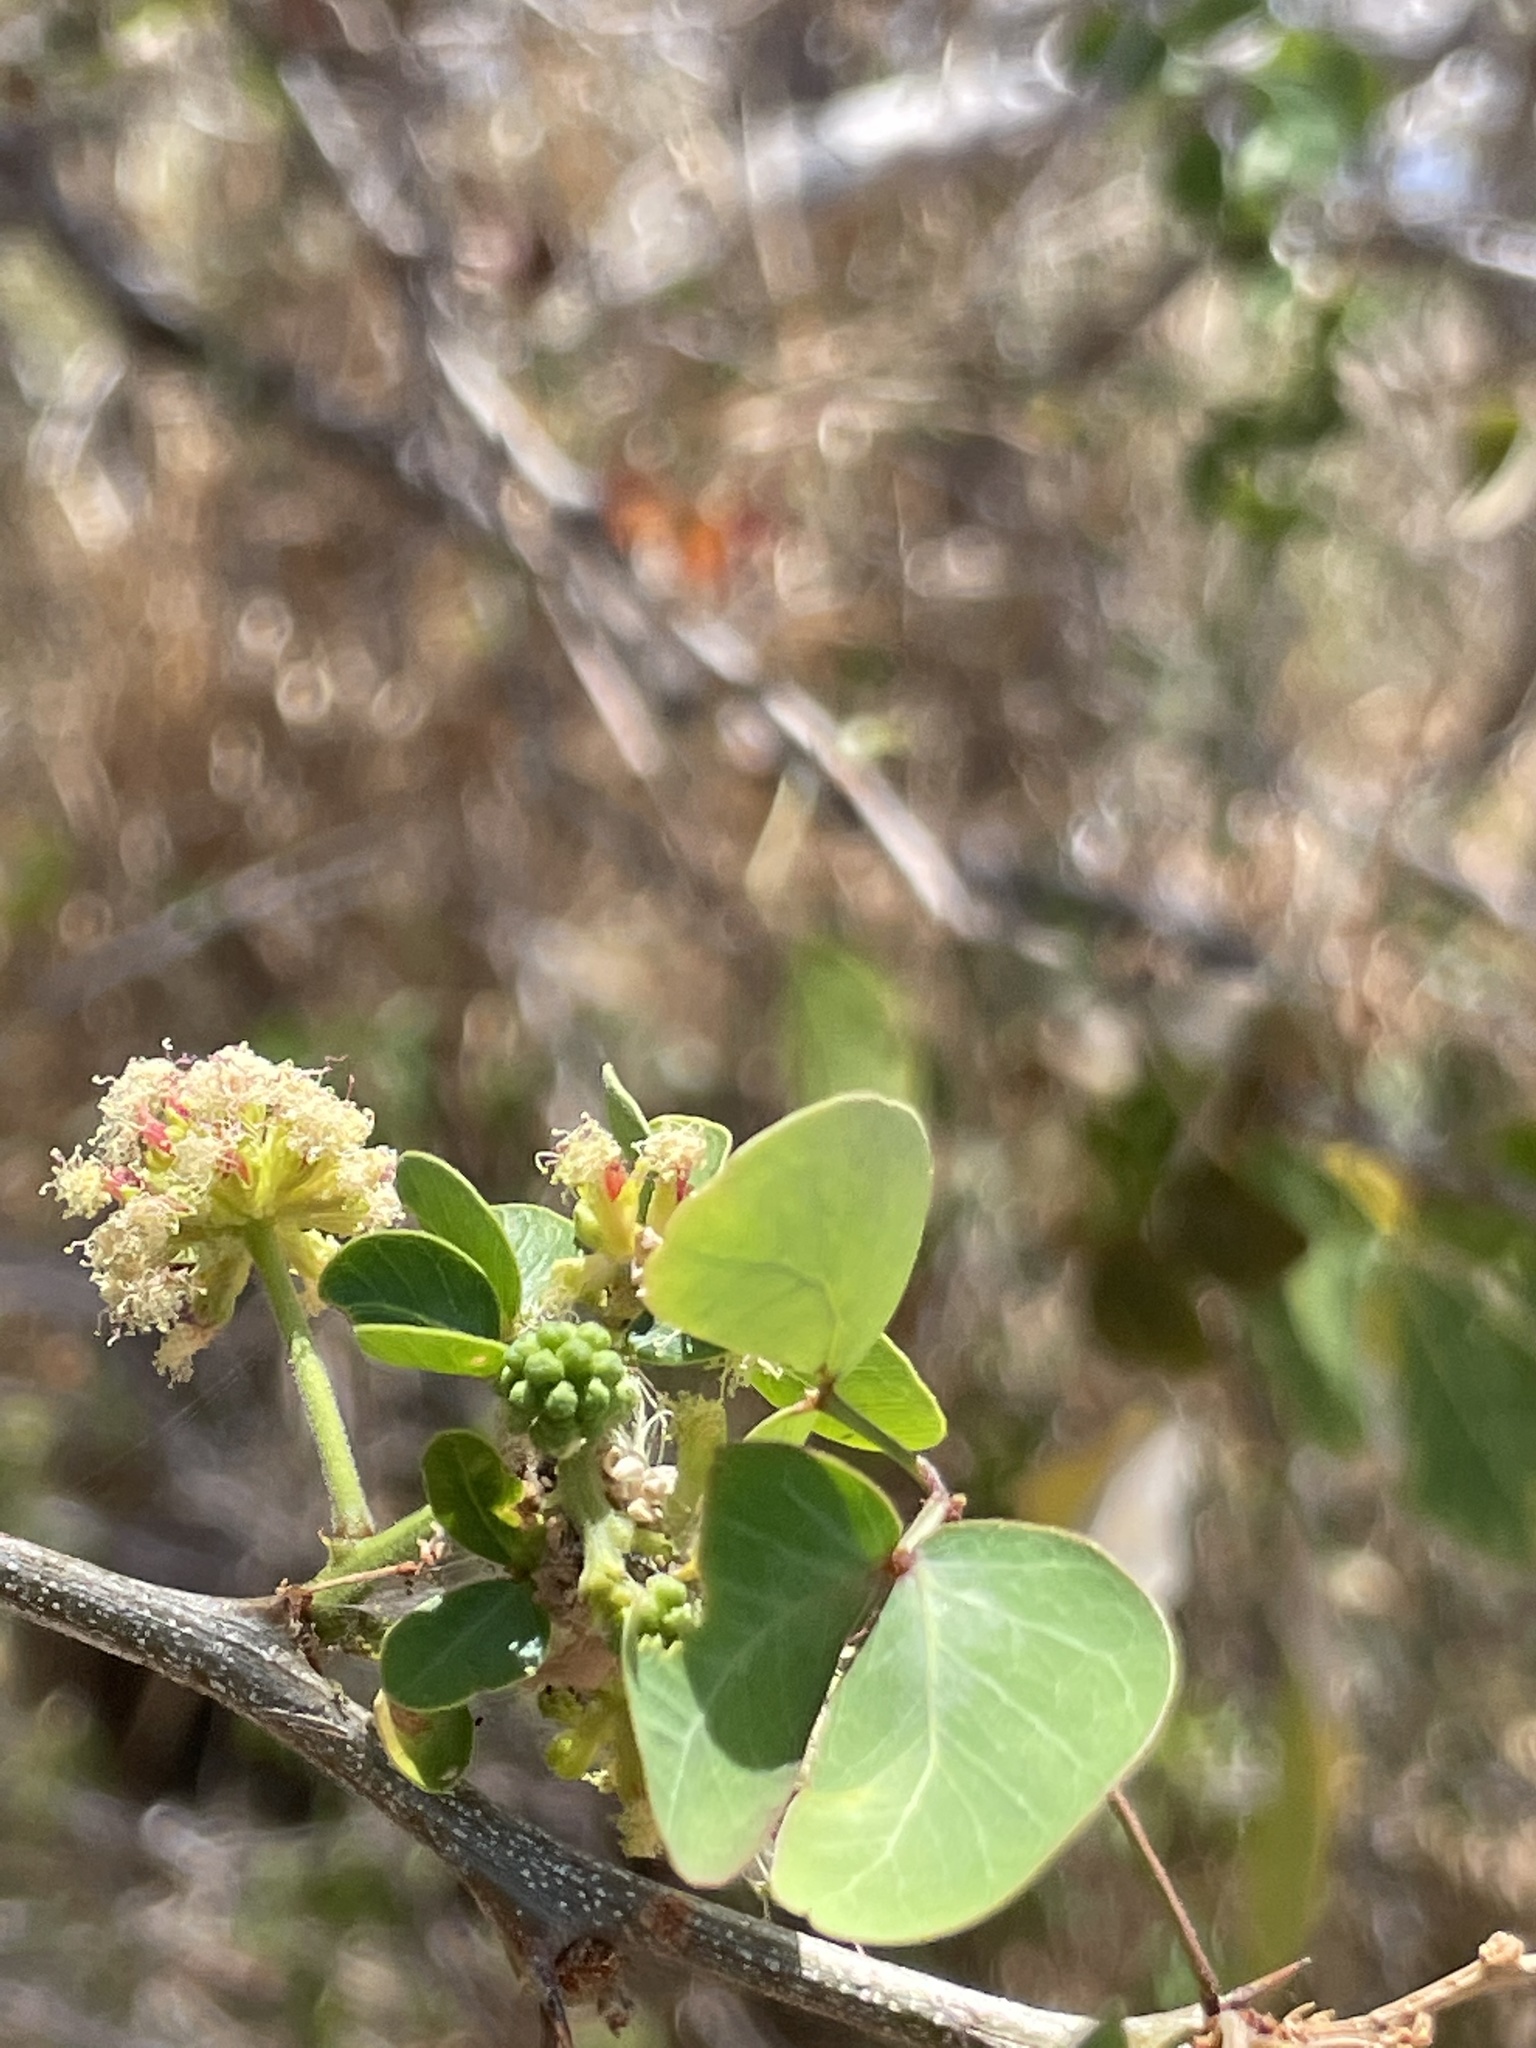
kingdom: Plantae
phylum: Tracheophyta
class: Magnoliopsida
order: Fabales
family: Fabaceae
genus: Pithecellobium
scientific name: Pithecellobium dulce
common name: Monkeypod
